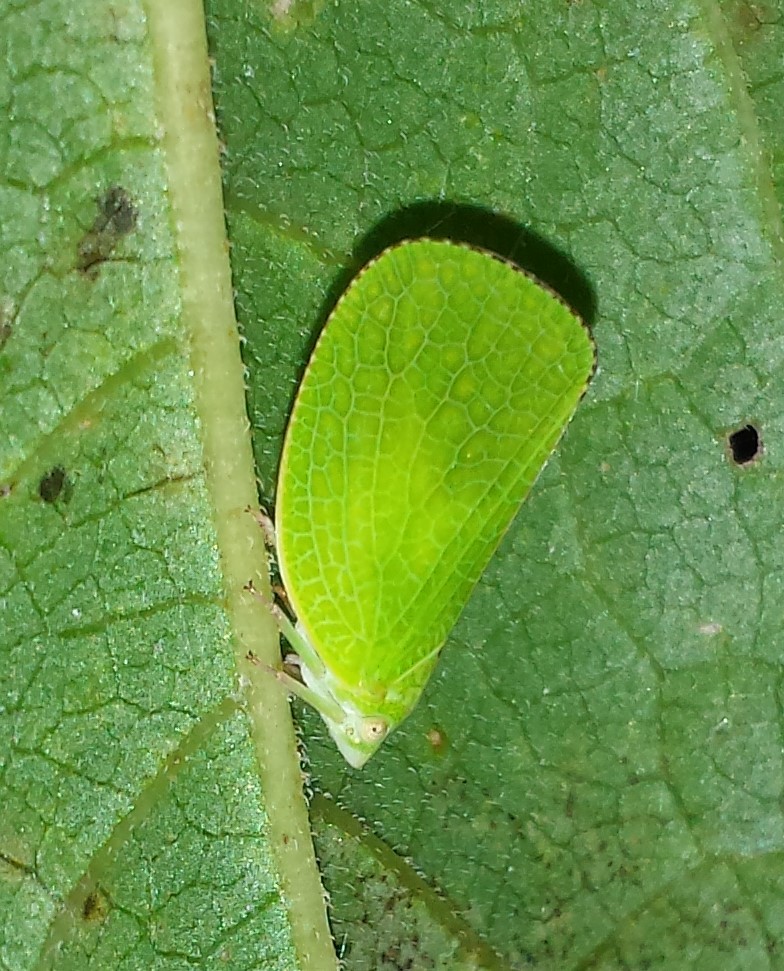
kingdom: Animalia
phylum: Arthropoda
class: Insecta
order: Hemiptera
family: Acanaloniidae
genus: Acanalonia
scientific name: Acanalonia conica
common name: Green cone-headed planthopper
